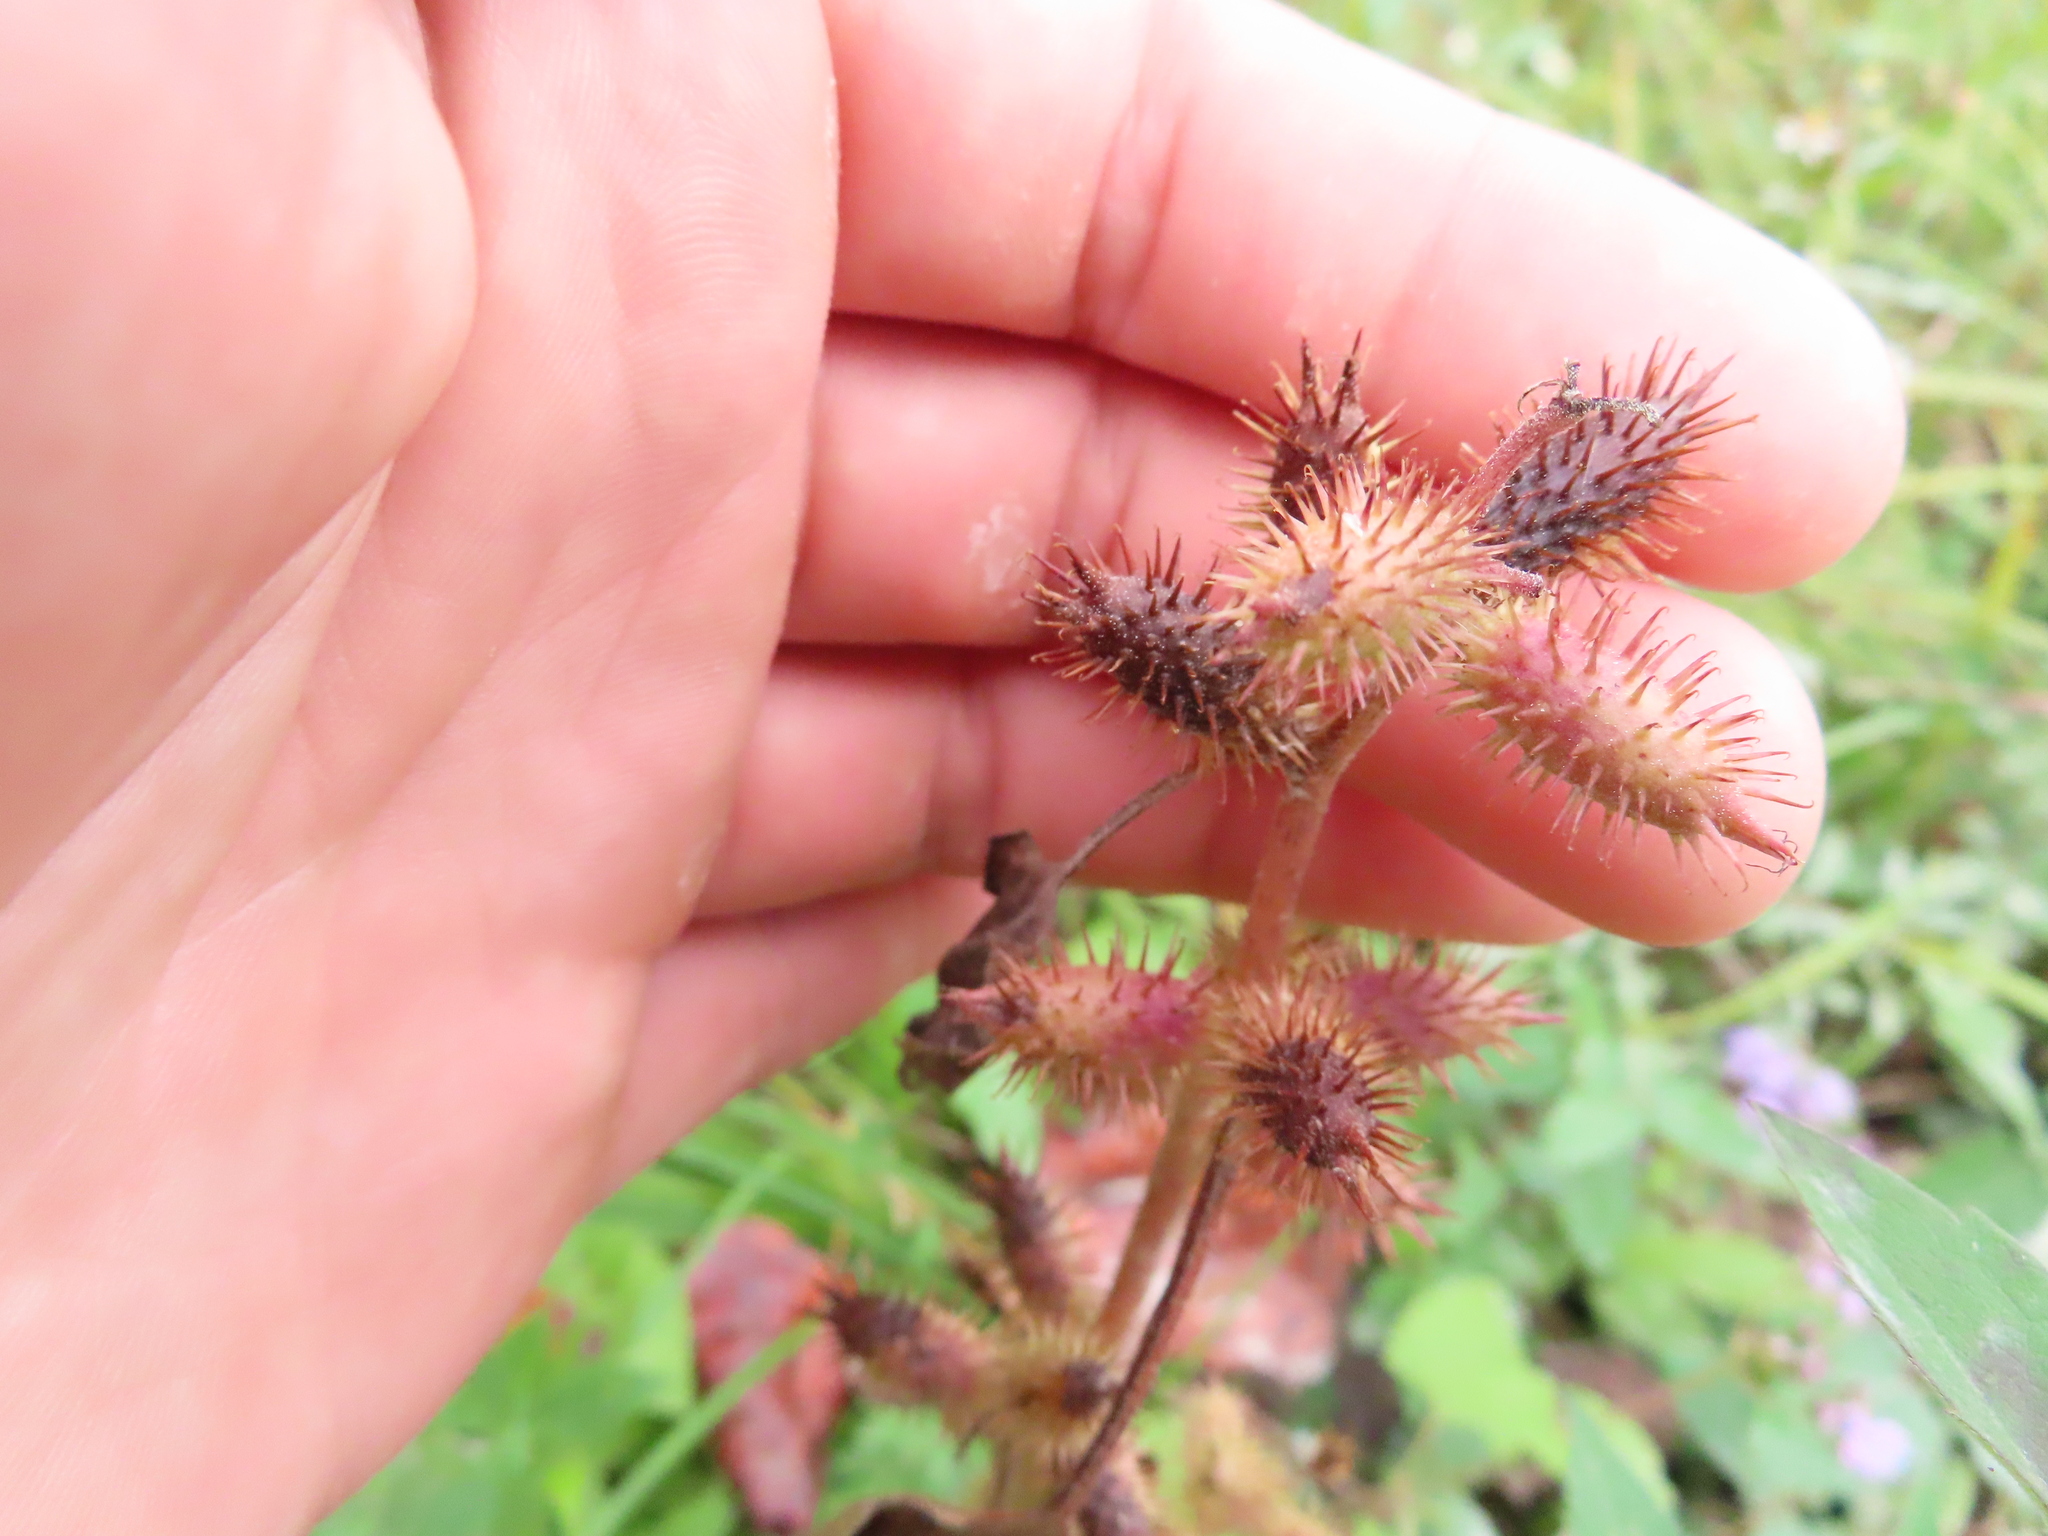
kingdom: Plantae
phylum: Tracheophyta
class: Magnoliopsida
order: Asterales
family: Asteraceae
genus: Xanthium
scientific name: Xanthium strumarium
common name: Rough cocklebur
